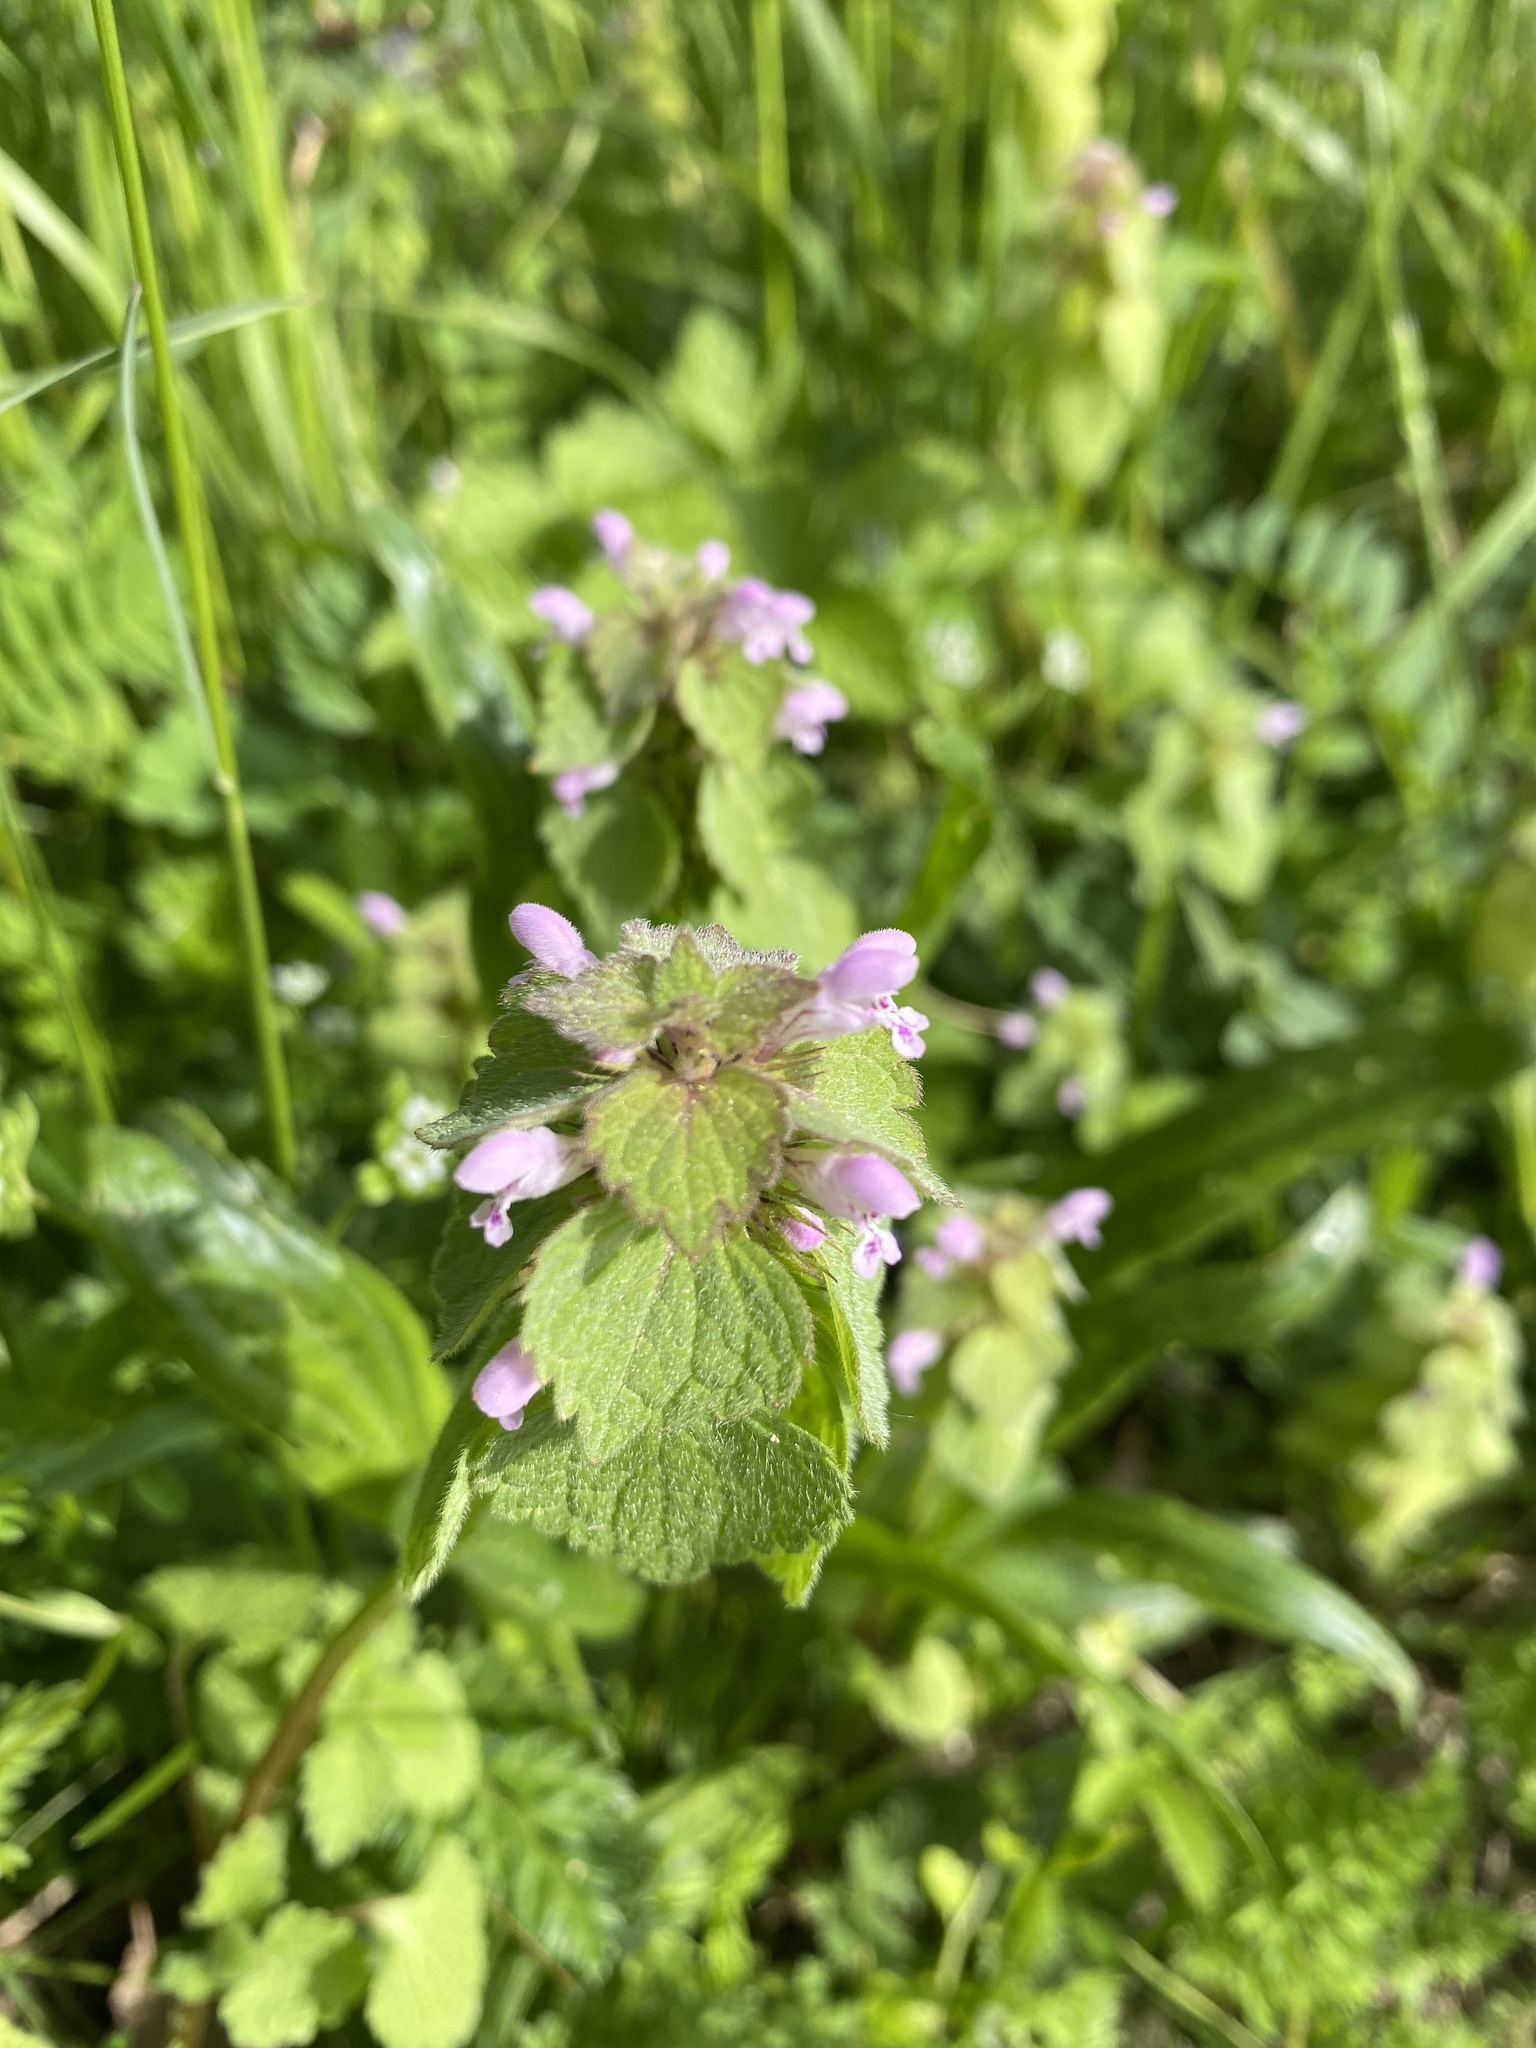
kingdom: Plantae
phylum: Tracheophyta
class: Magnoliopsida
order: Lamiales
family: Lamiaceae
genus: Lamium
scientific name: Lamium purpureum
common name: Red dead-nettle
